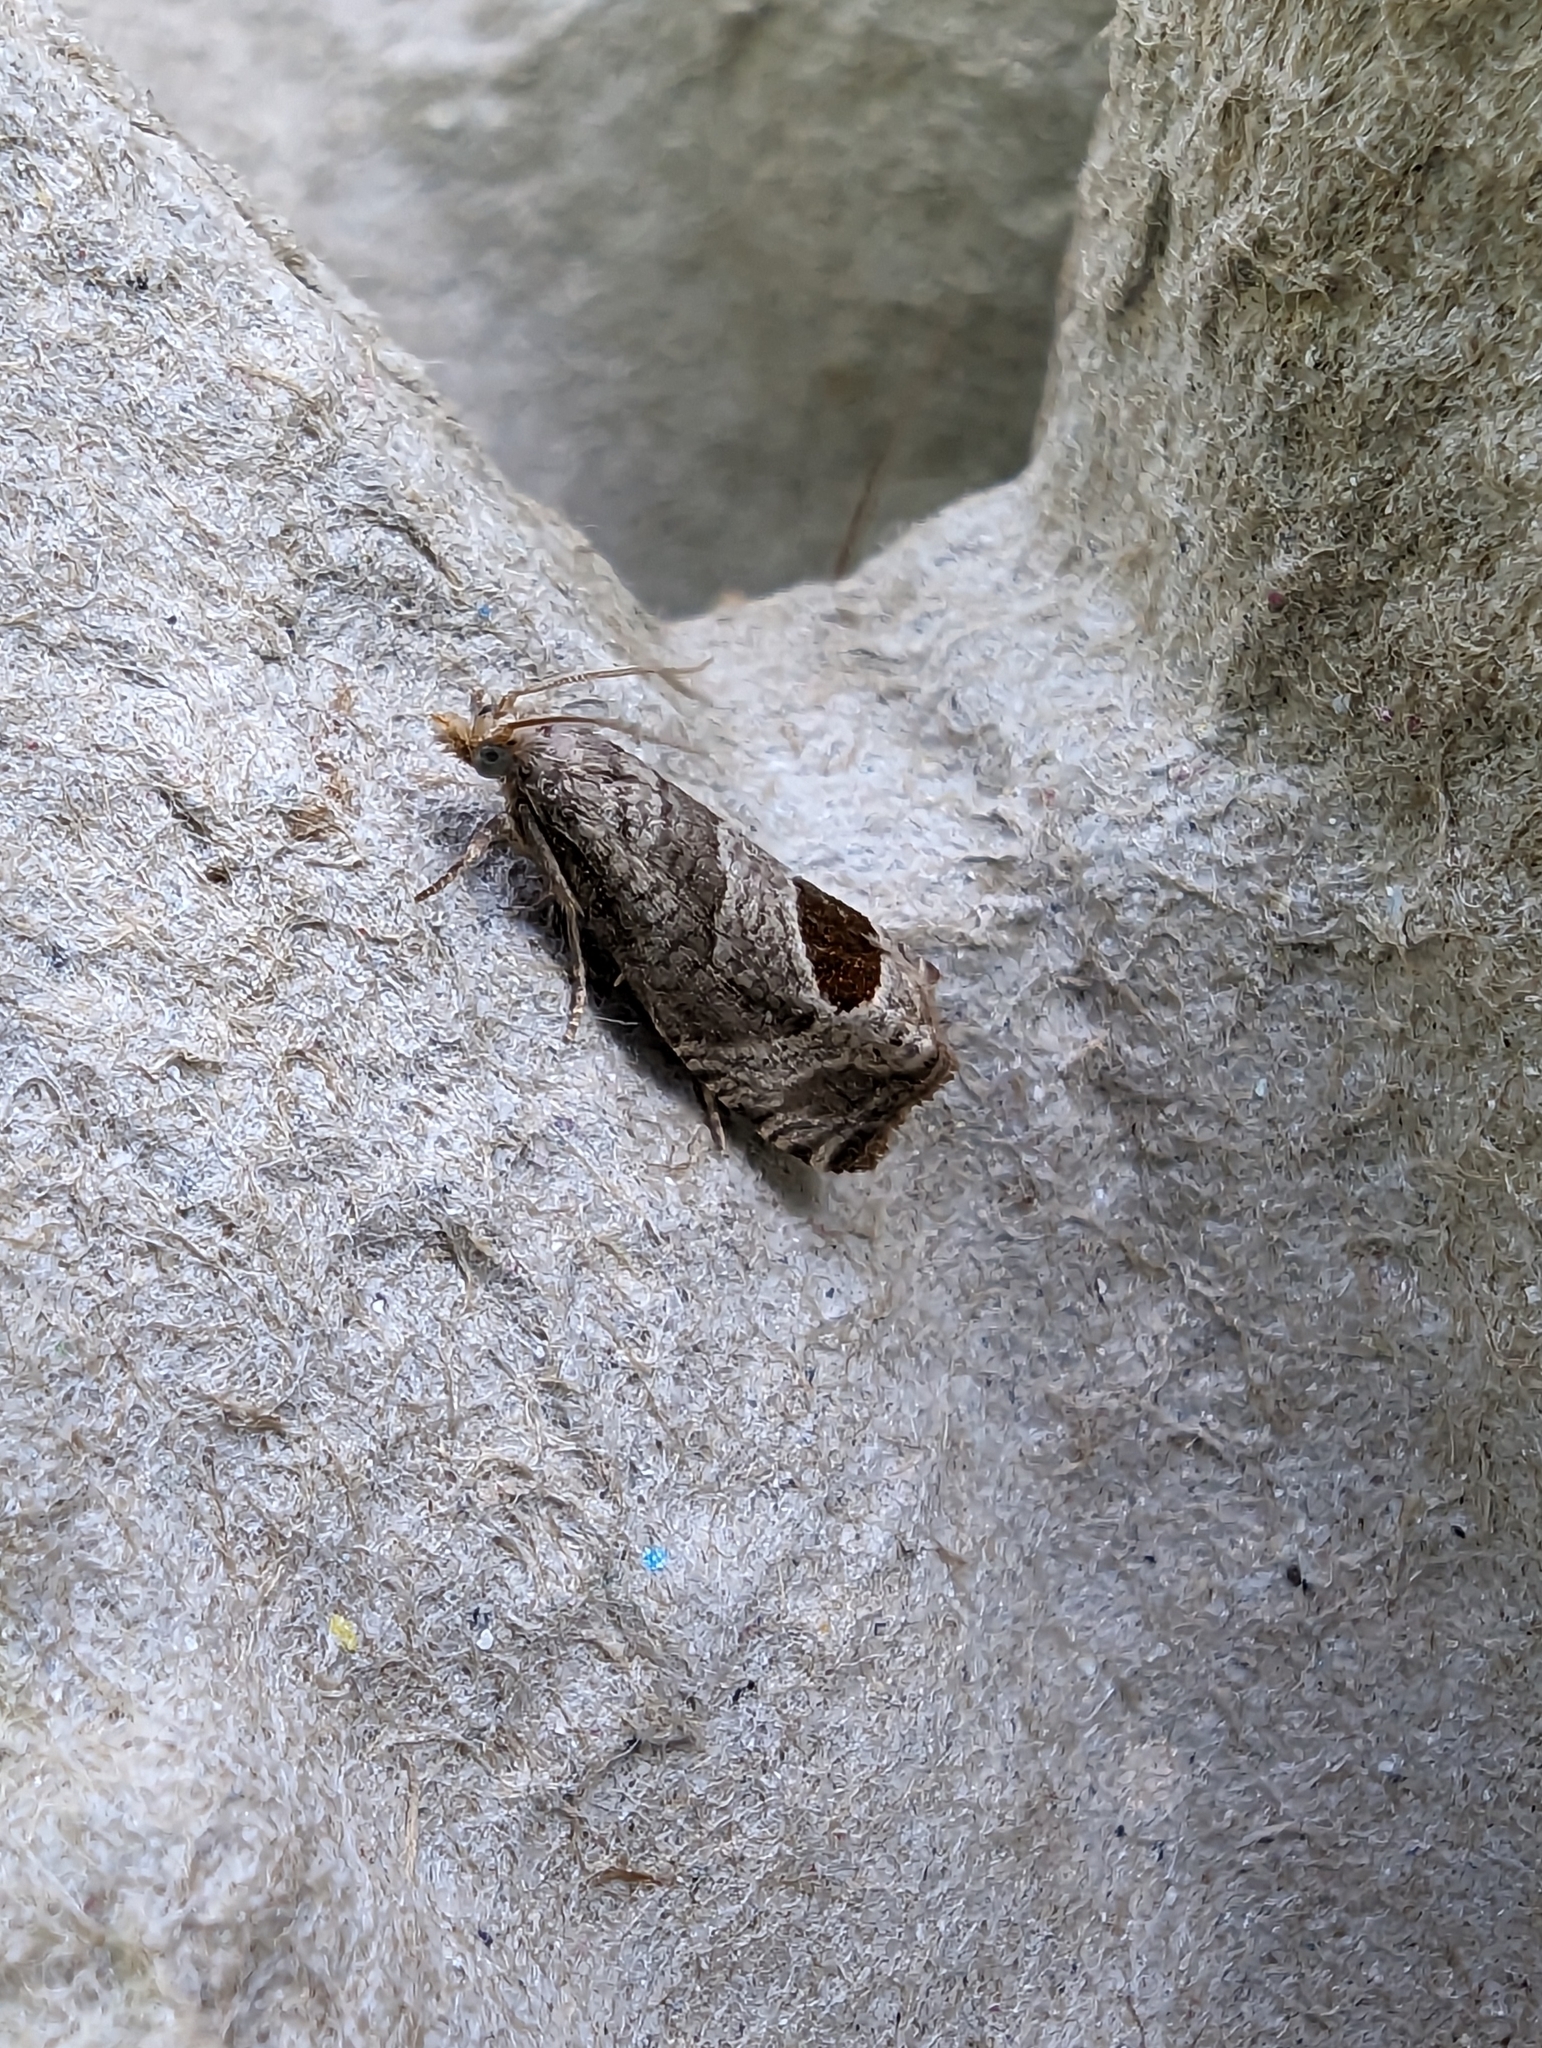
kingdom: Animalia
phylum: Arthropoda
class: Insecta
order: Lepidoptera
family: Tortricidae
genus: Notocelia
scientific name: Notocelia uddmanniana
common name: Bramble shoot moth
